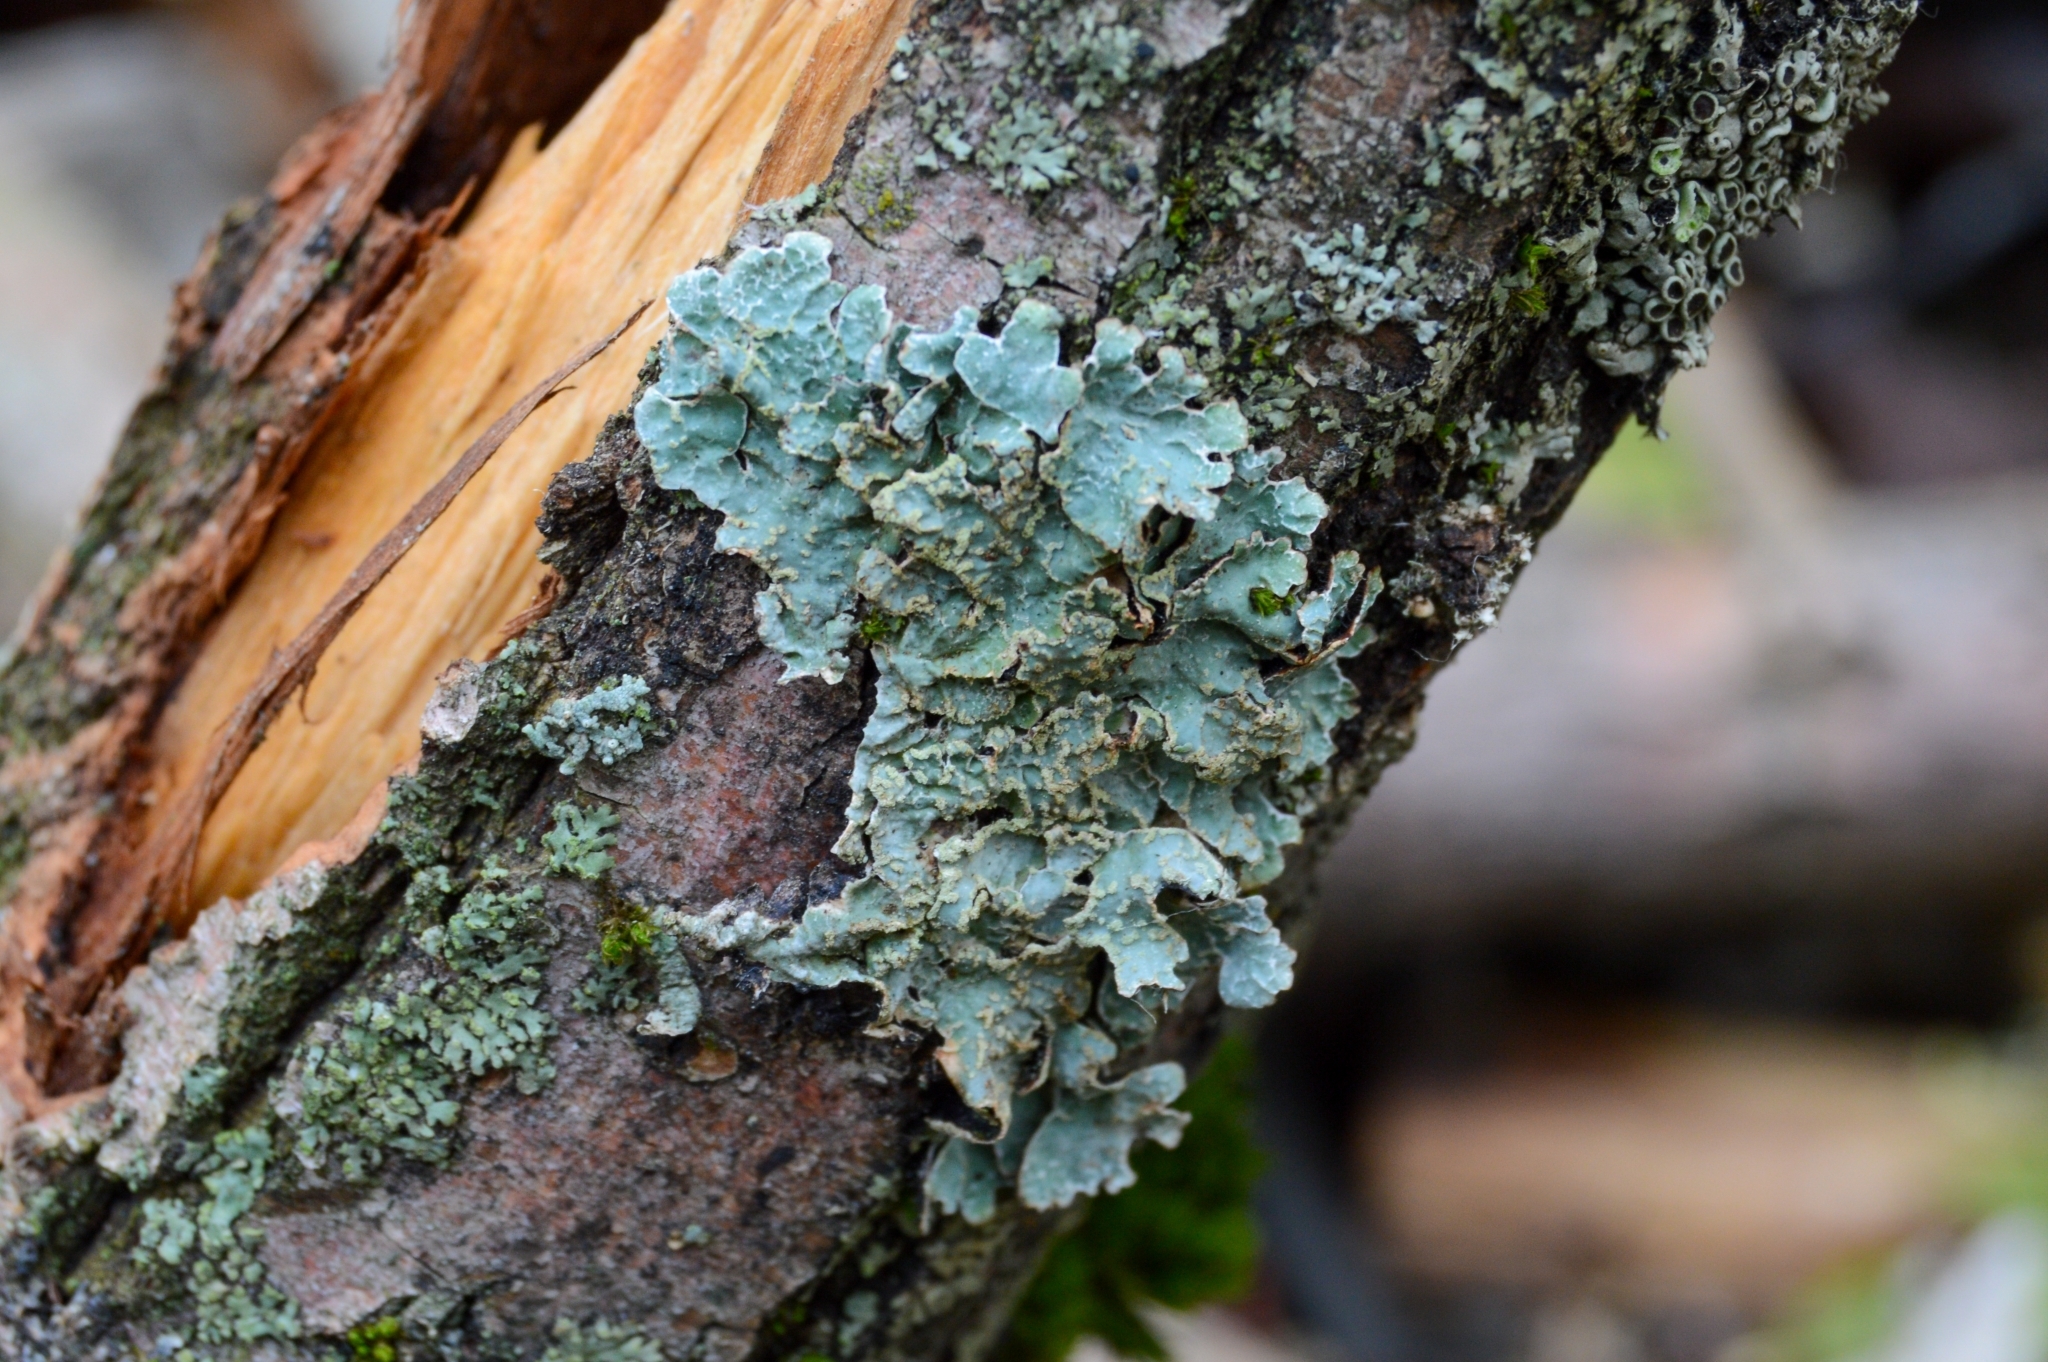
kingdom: Fungi
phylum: Ascomycota
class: Lecanoromycetes
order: Lecanorales
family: Parmeliaceae
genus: Parmelia
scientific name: Parmelia sulcata
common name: Netted shield lichen
